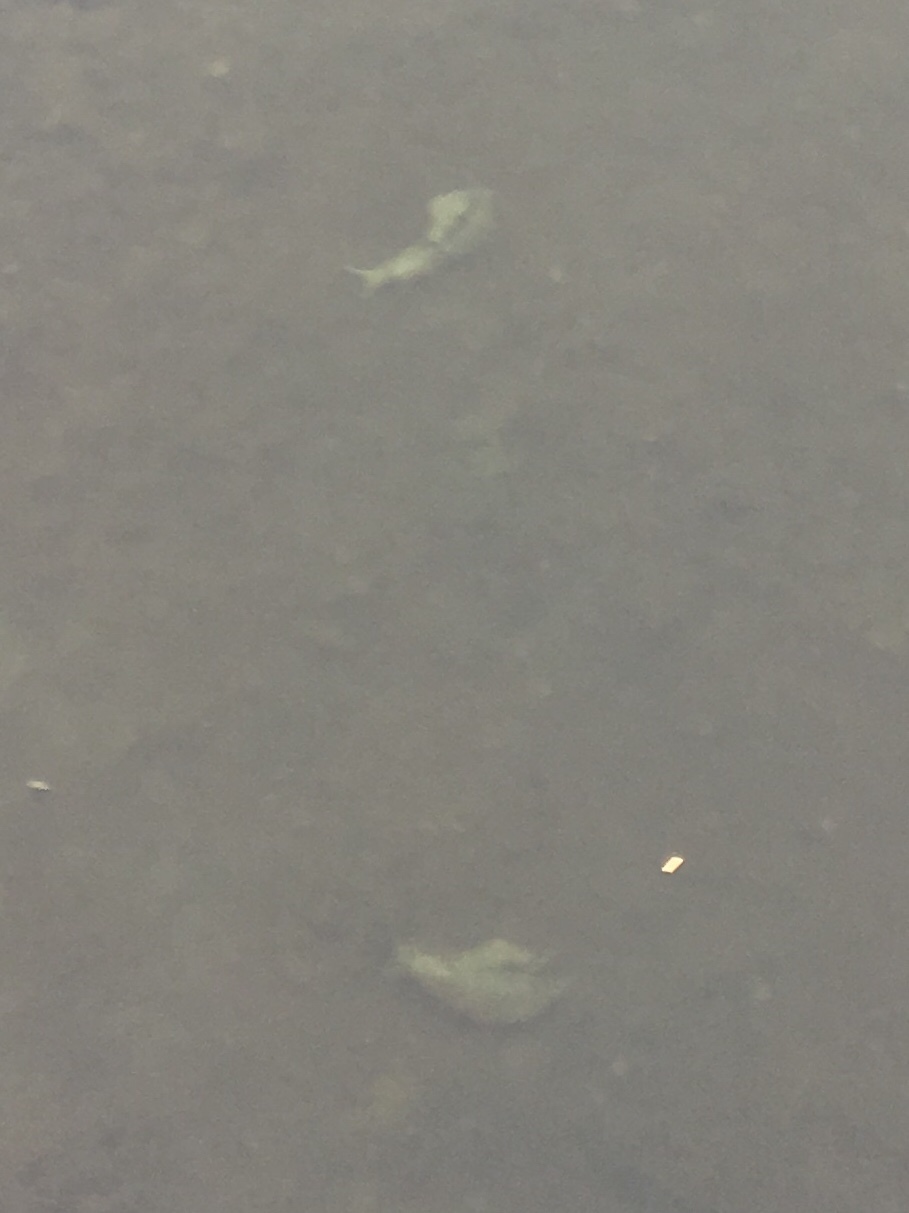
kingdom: Animalia
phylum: Mollusca
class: Gastropoda
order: Aplysiida
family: Aplysiidae
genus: Aplysia
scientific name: Aplysia californica
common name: California seahare
